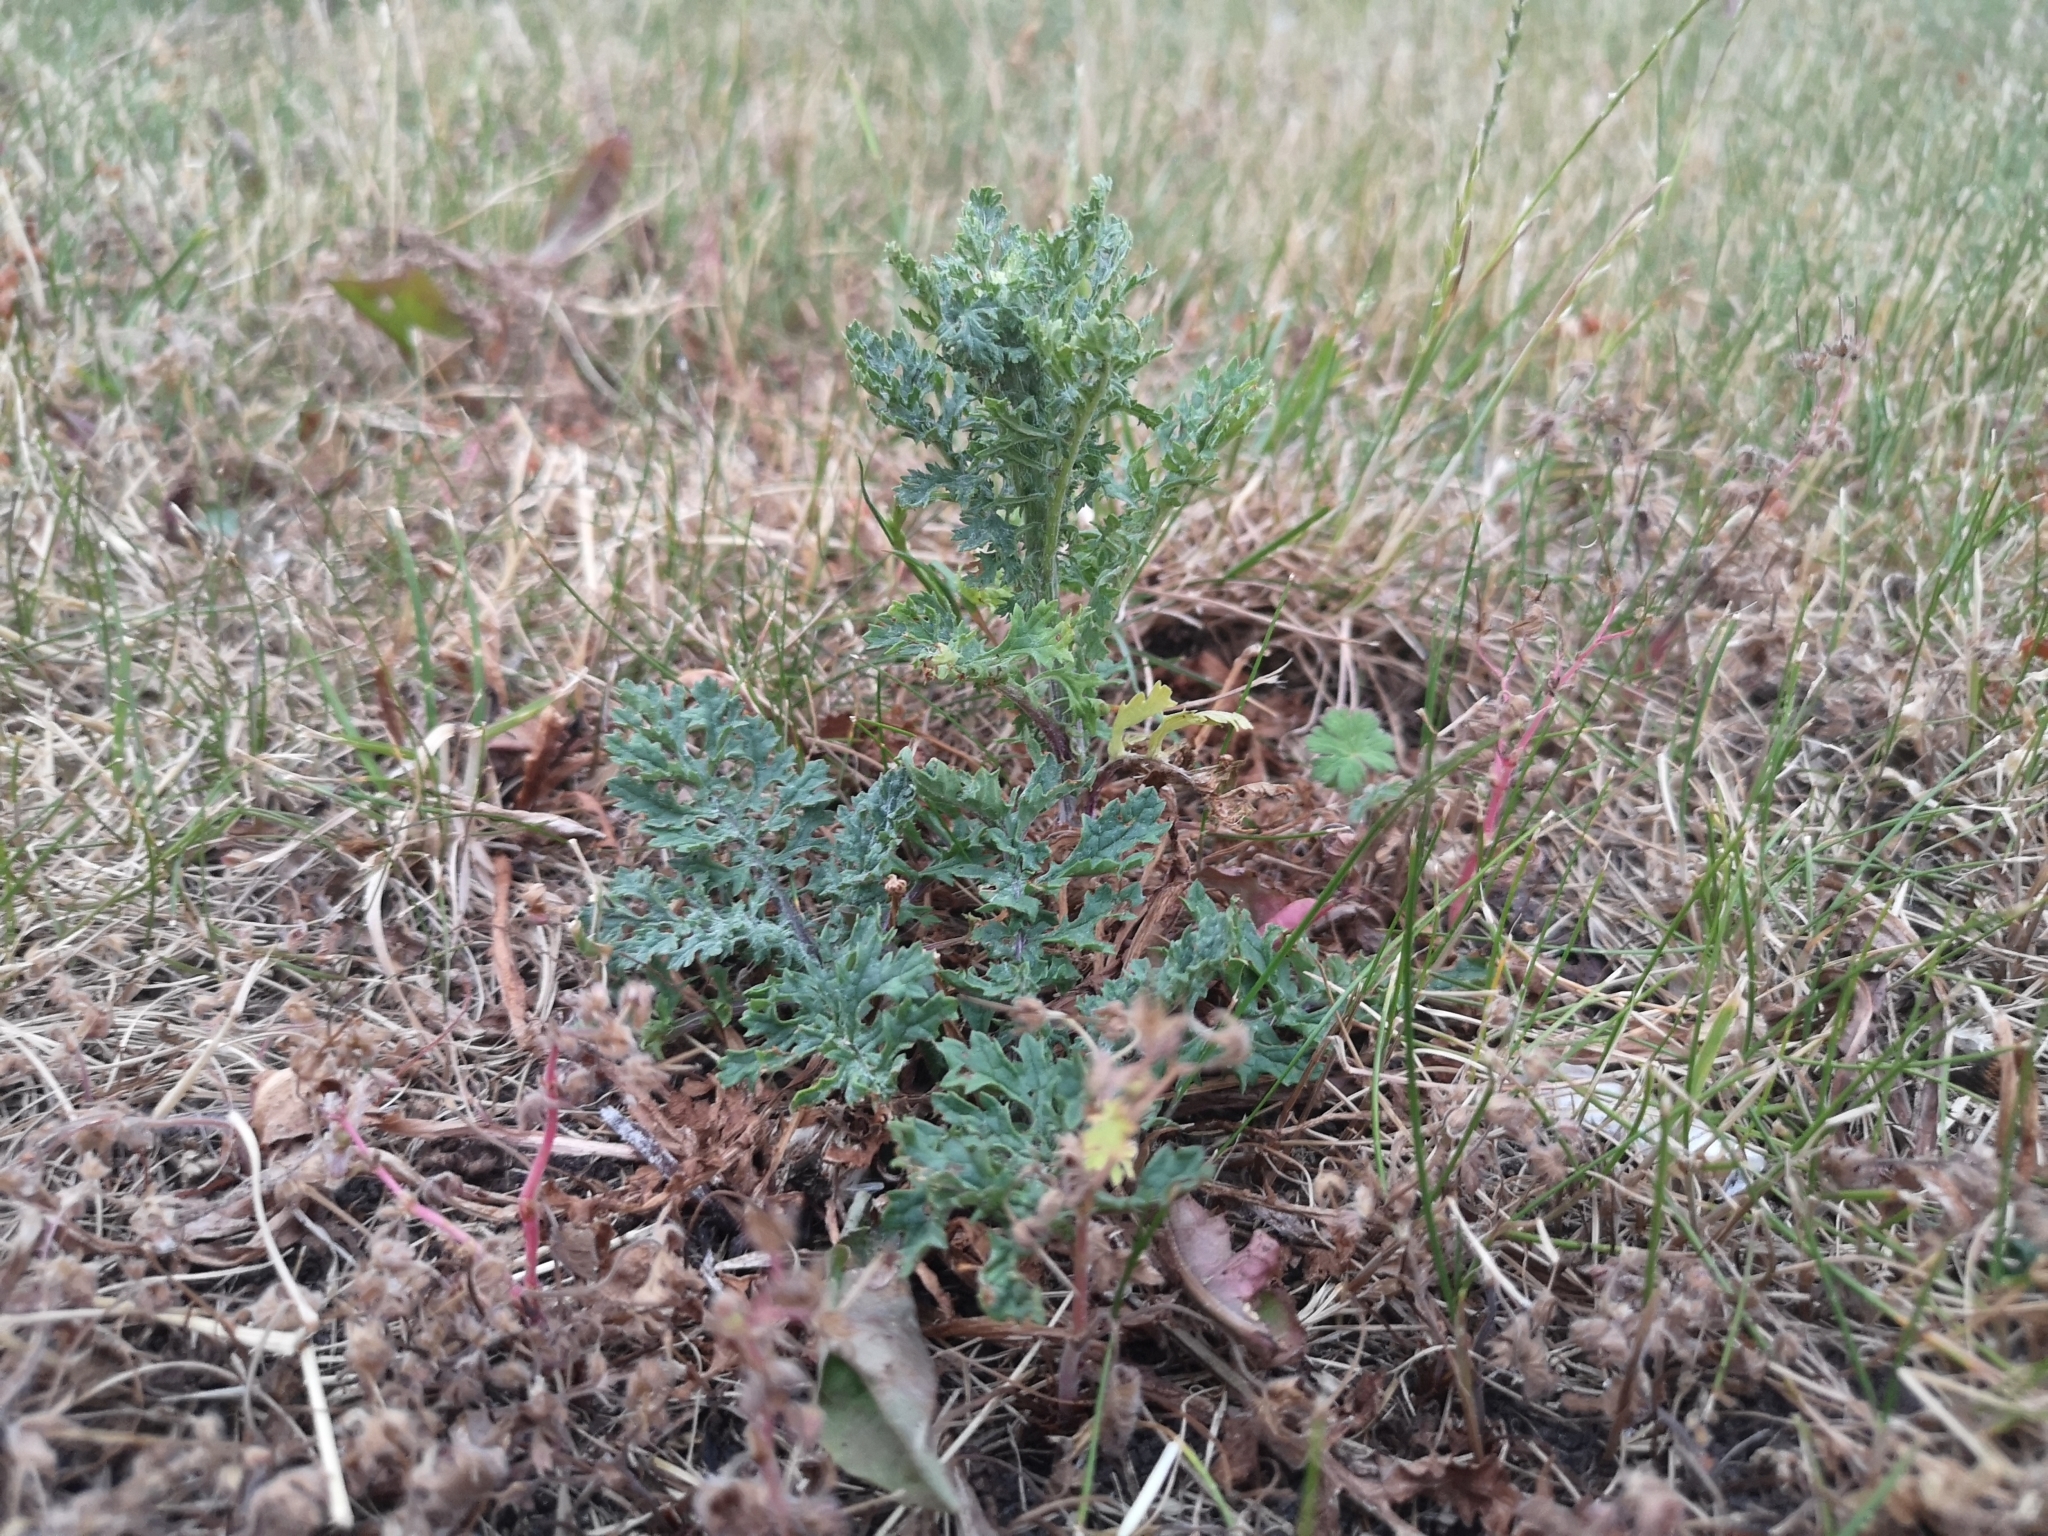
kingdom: Plantae
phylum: Tracheophyta
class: Magnoliopsida
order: Asterales
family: Asteraceae
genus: Jacobaea
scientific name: Jacobaea vulgaris
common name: Stinking willie
